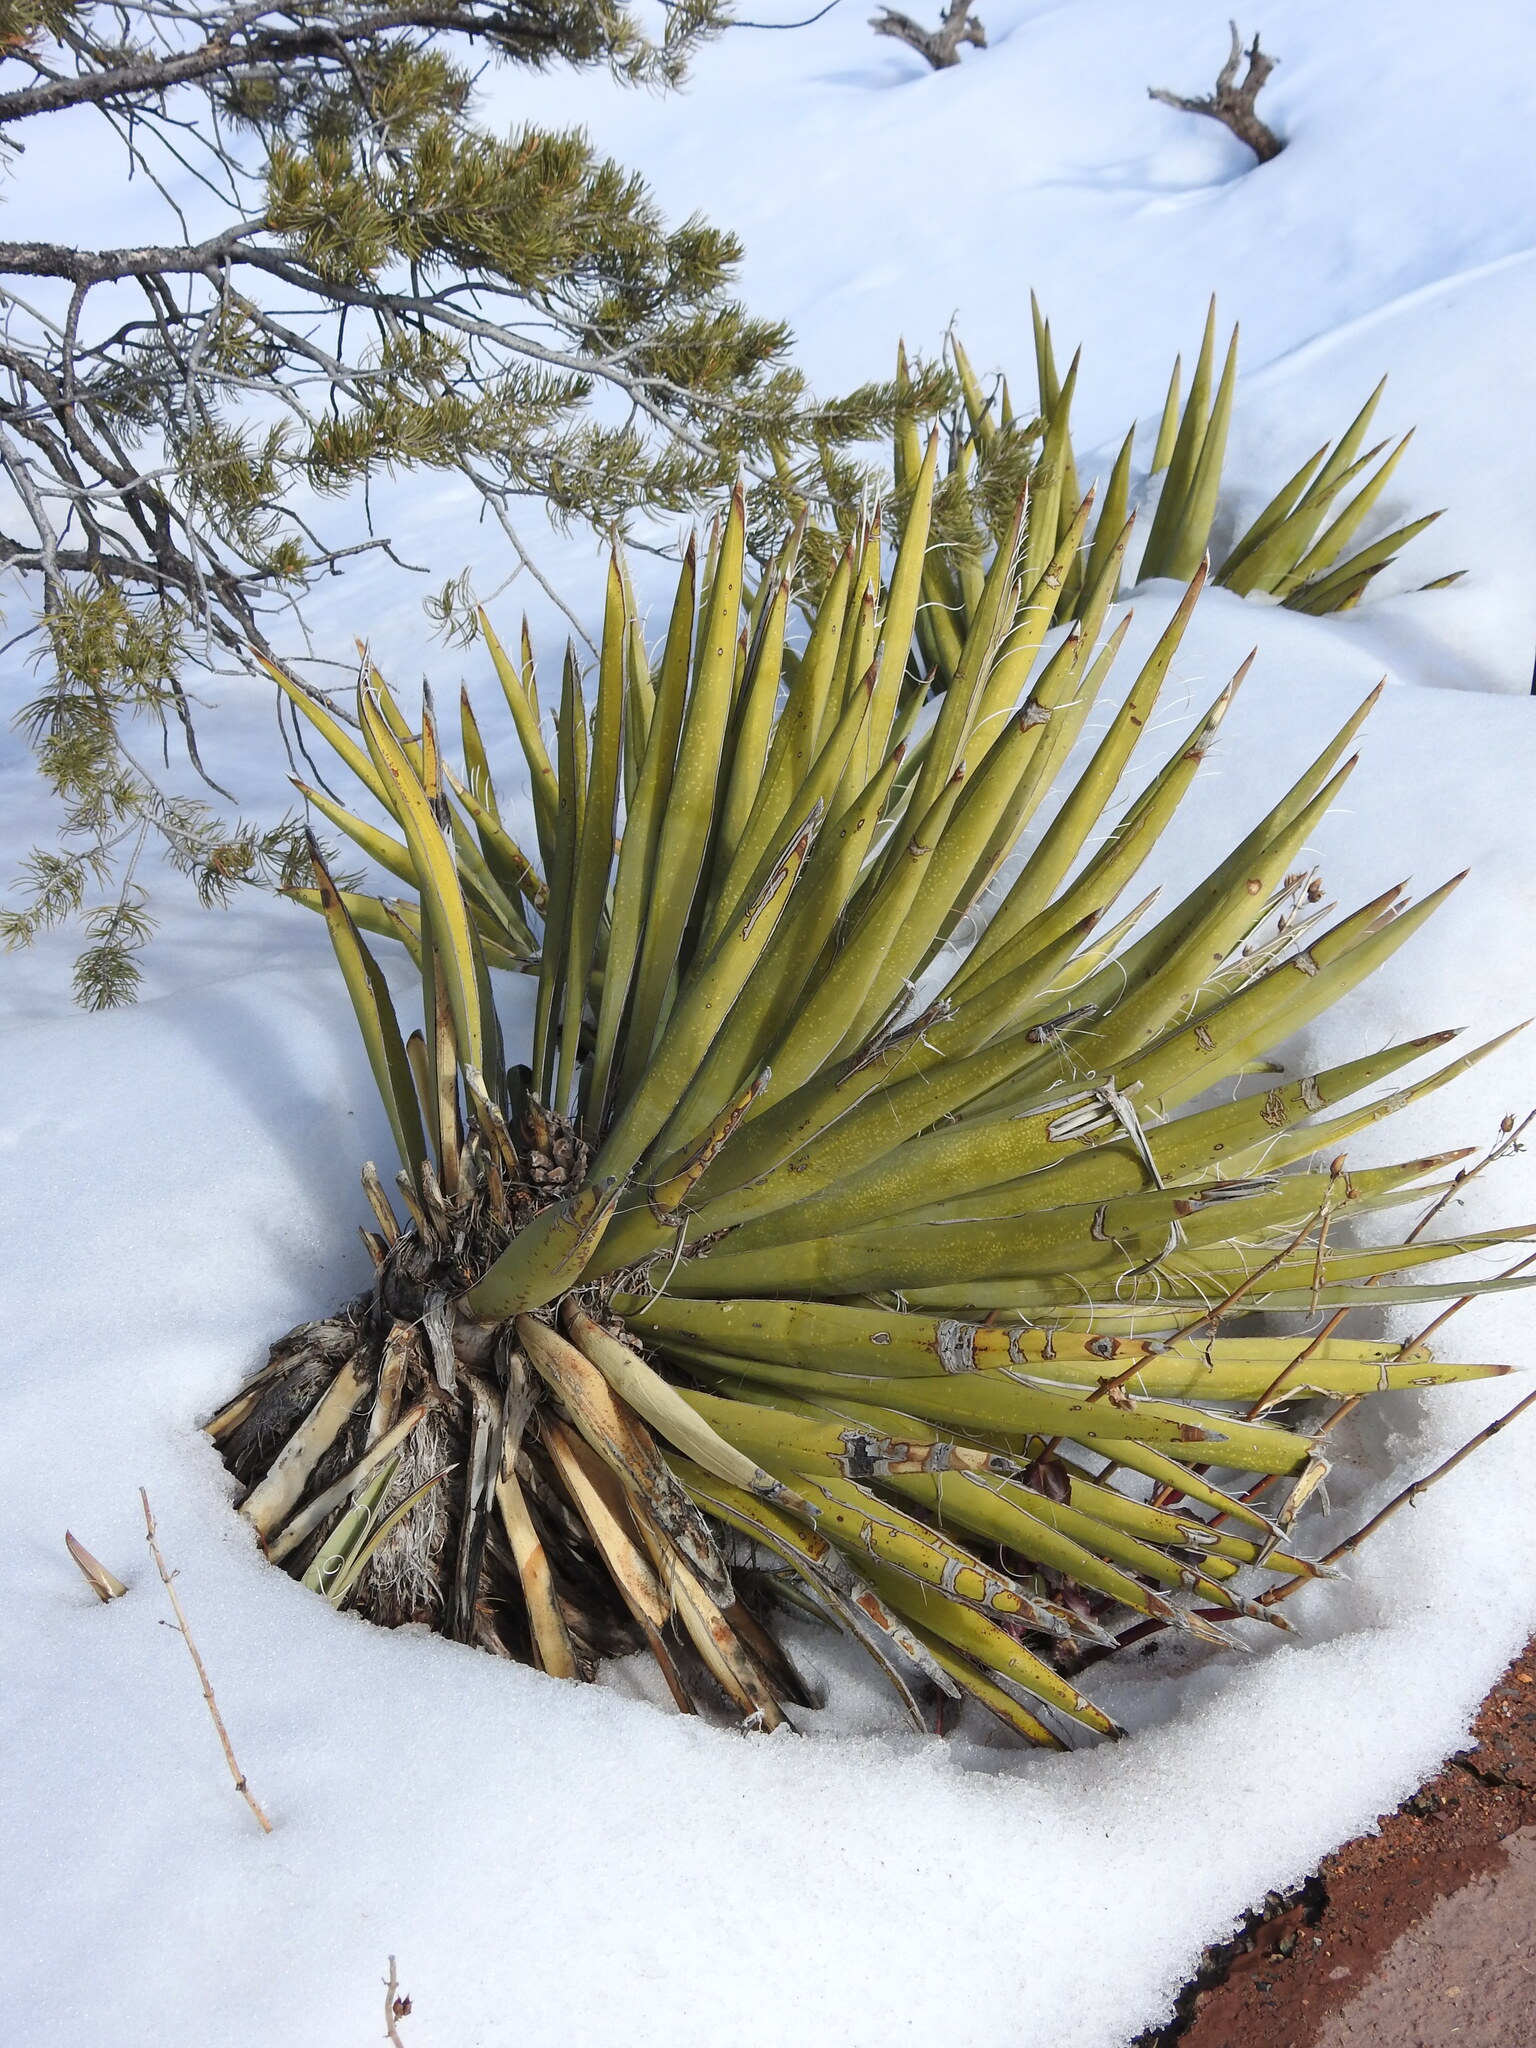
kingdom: Plantae
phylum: Tracheophyta
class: Liliopsida
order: Asparagales
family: Asparagaceae
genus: Yucca
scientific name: Yucca baccata
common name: Banana yucca
